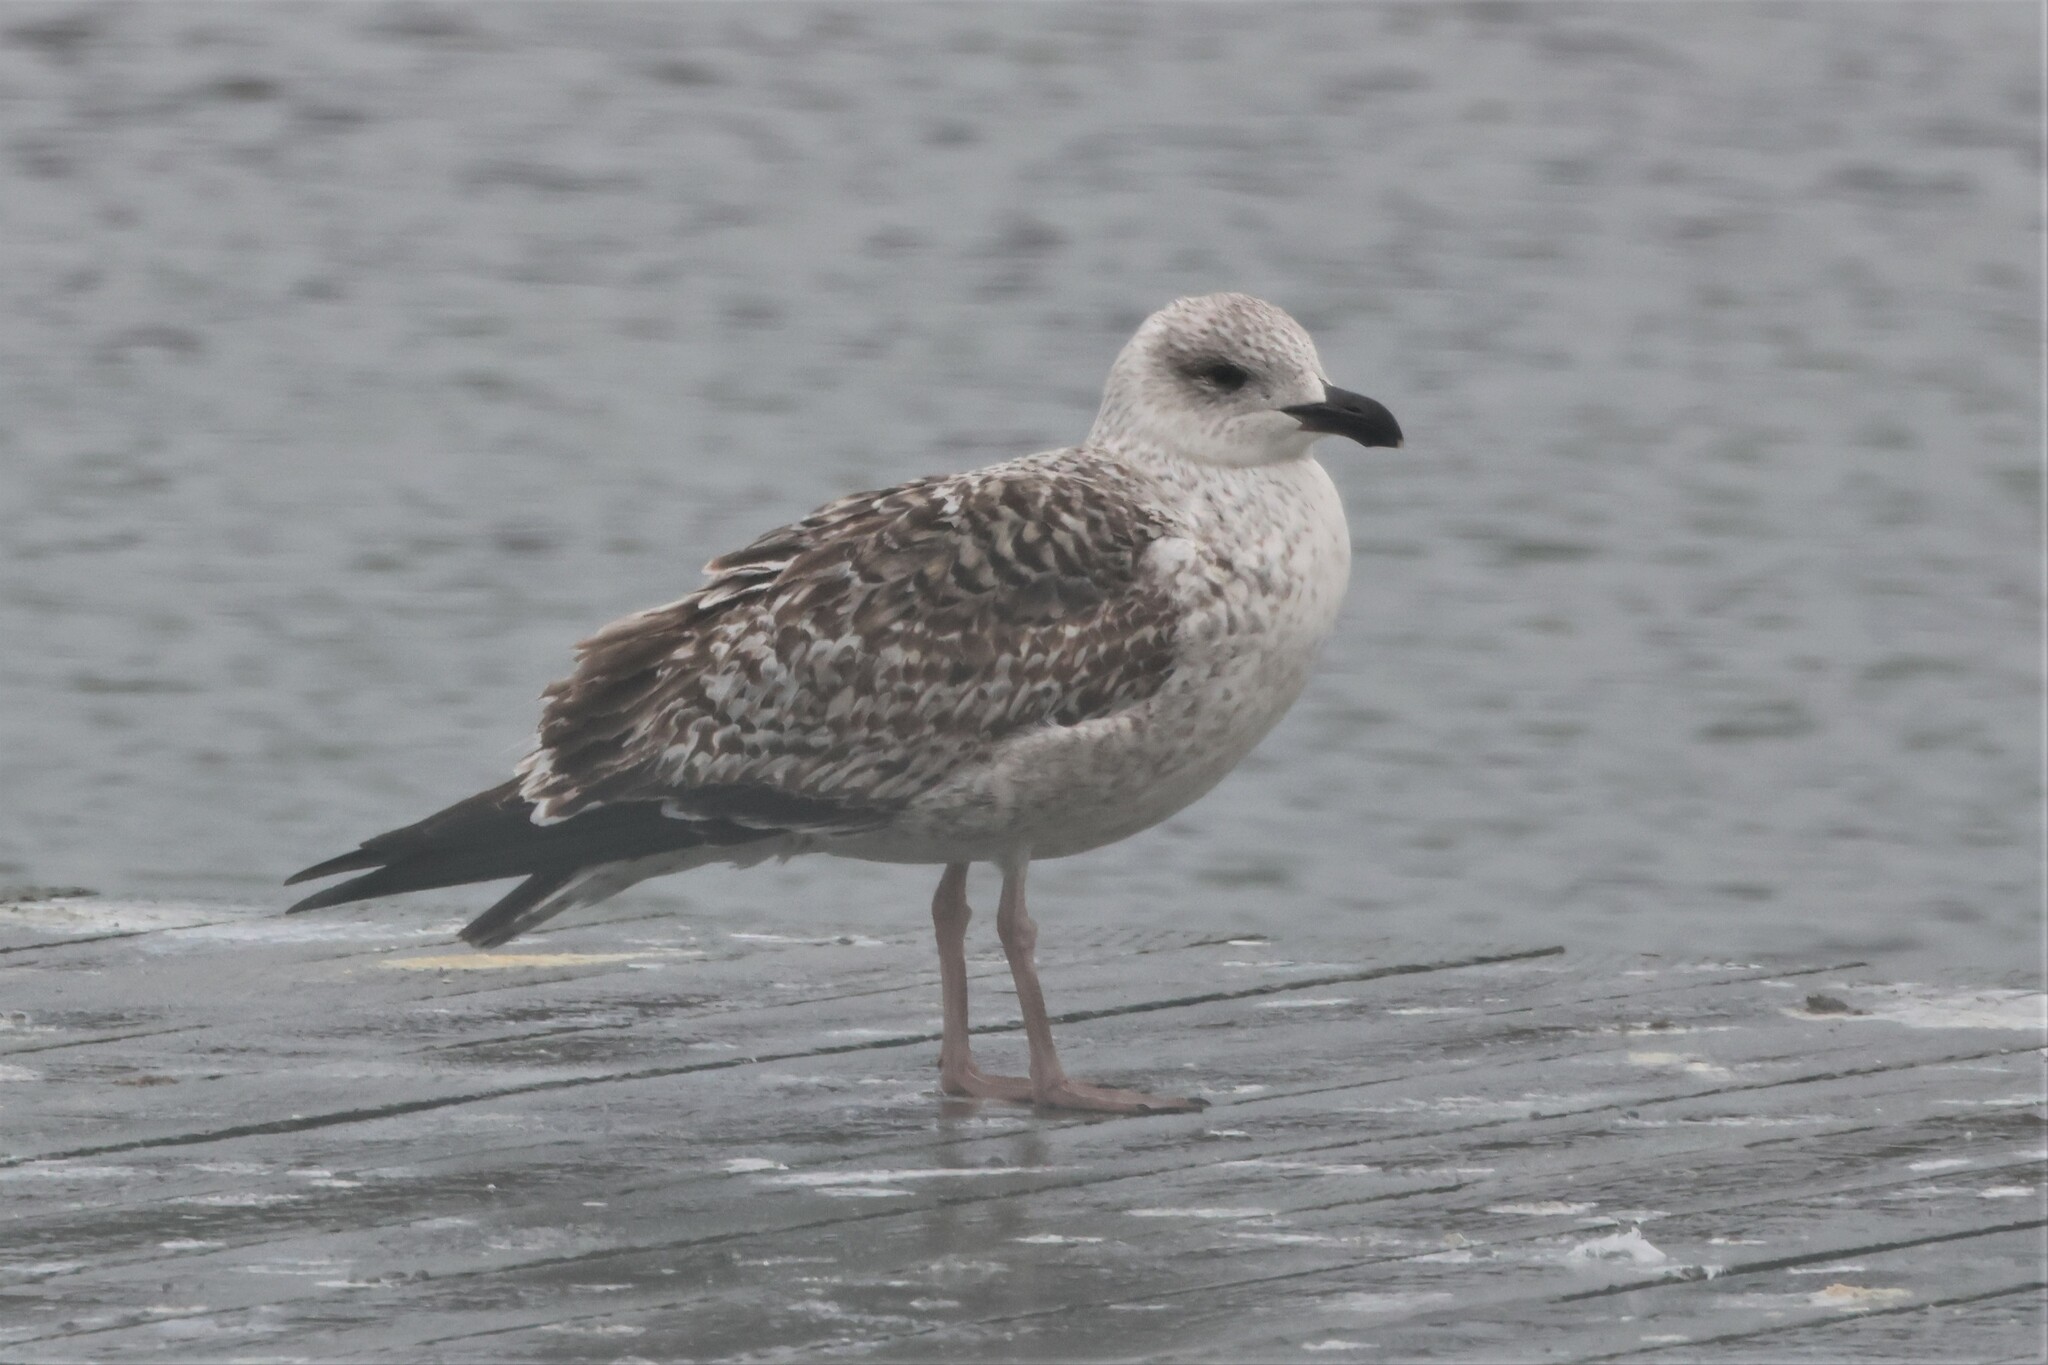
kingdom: Animalia
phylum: Chordata
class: Aves
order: Charadriiformes
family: Laridae
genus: Larus
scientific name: Larus marinus
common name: Great black-backed gull
